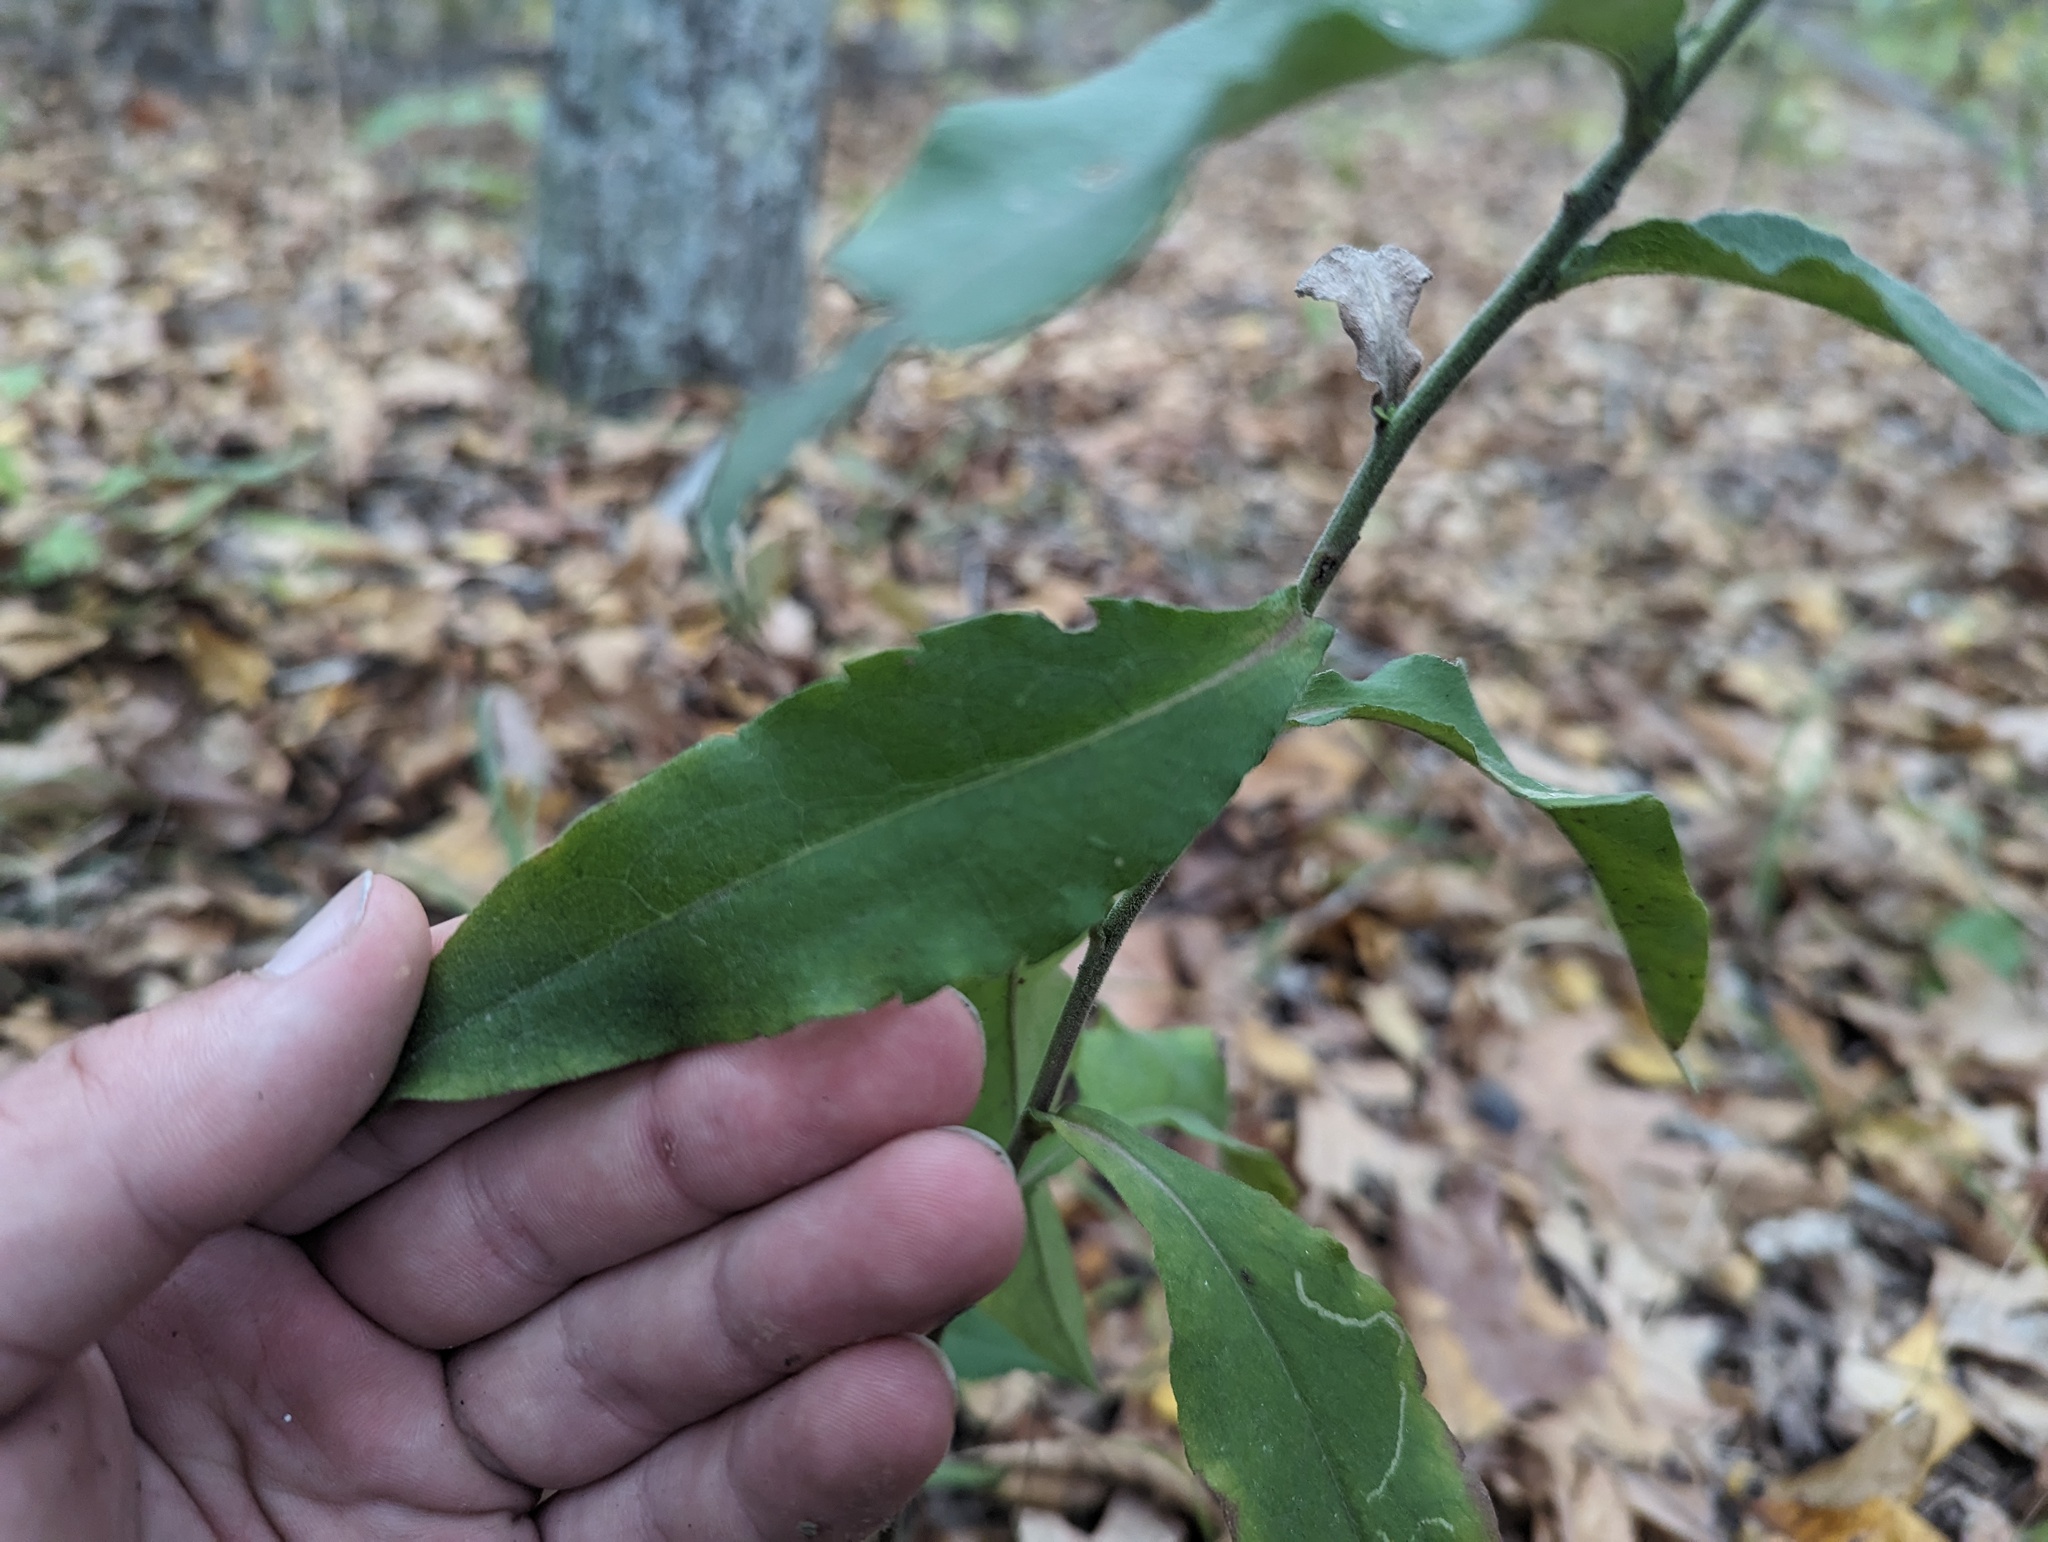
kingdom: Plantae
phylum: Tracheophyta
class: Magnoliopsida
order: Asterales
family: Asteraceae
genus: Symphyotrichum
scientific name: Symphyotrichum undulatum
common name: Clasping heart-leaf aster
